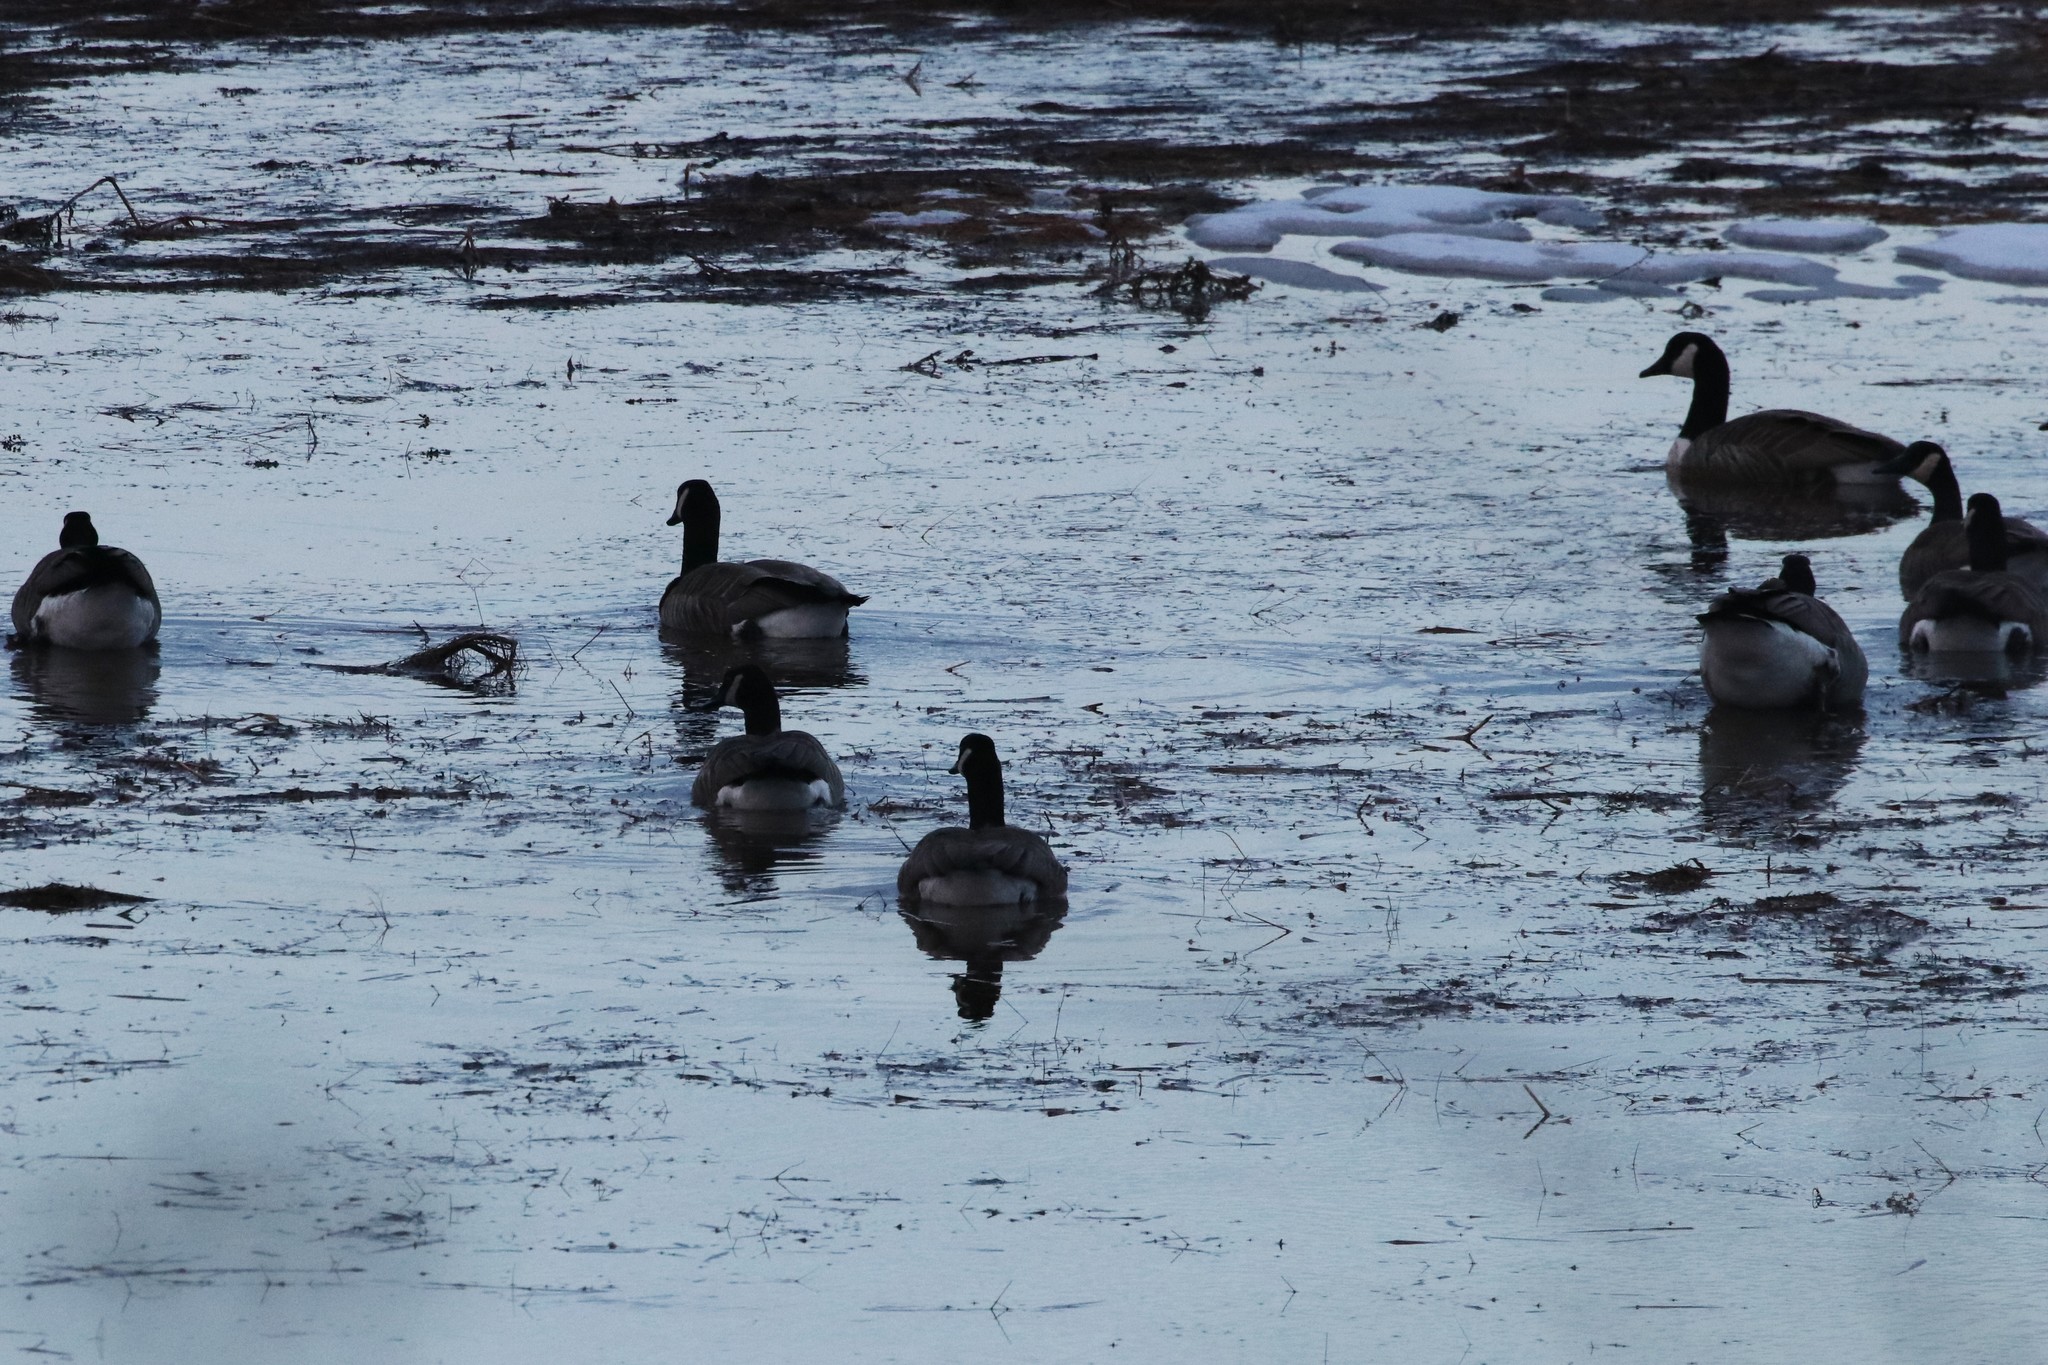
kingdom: Animalia
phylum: Chordata
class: Aves
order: Anseriformes
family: Anatidae
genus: Branta
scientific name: Branta canadensis
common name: Canada goose
